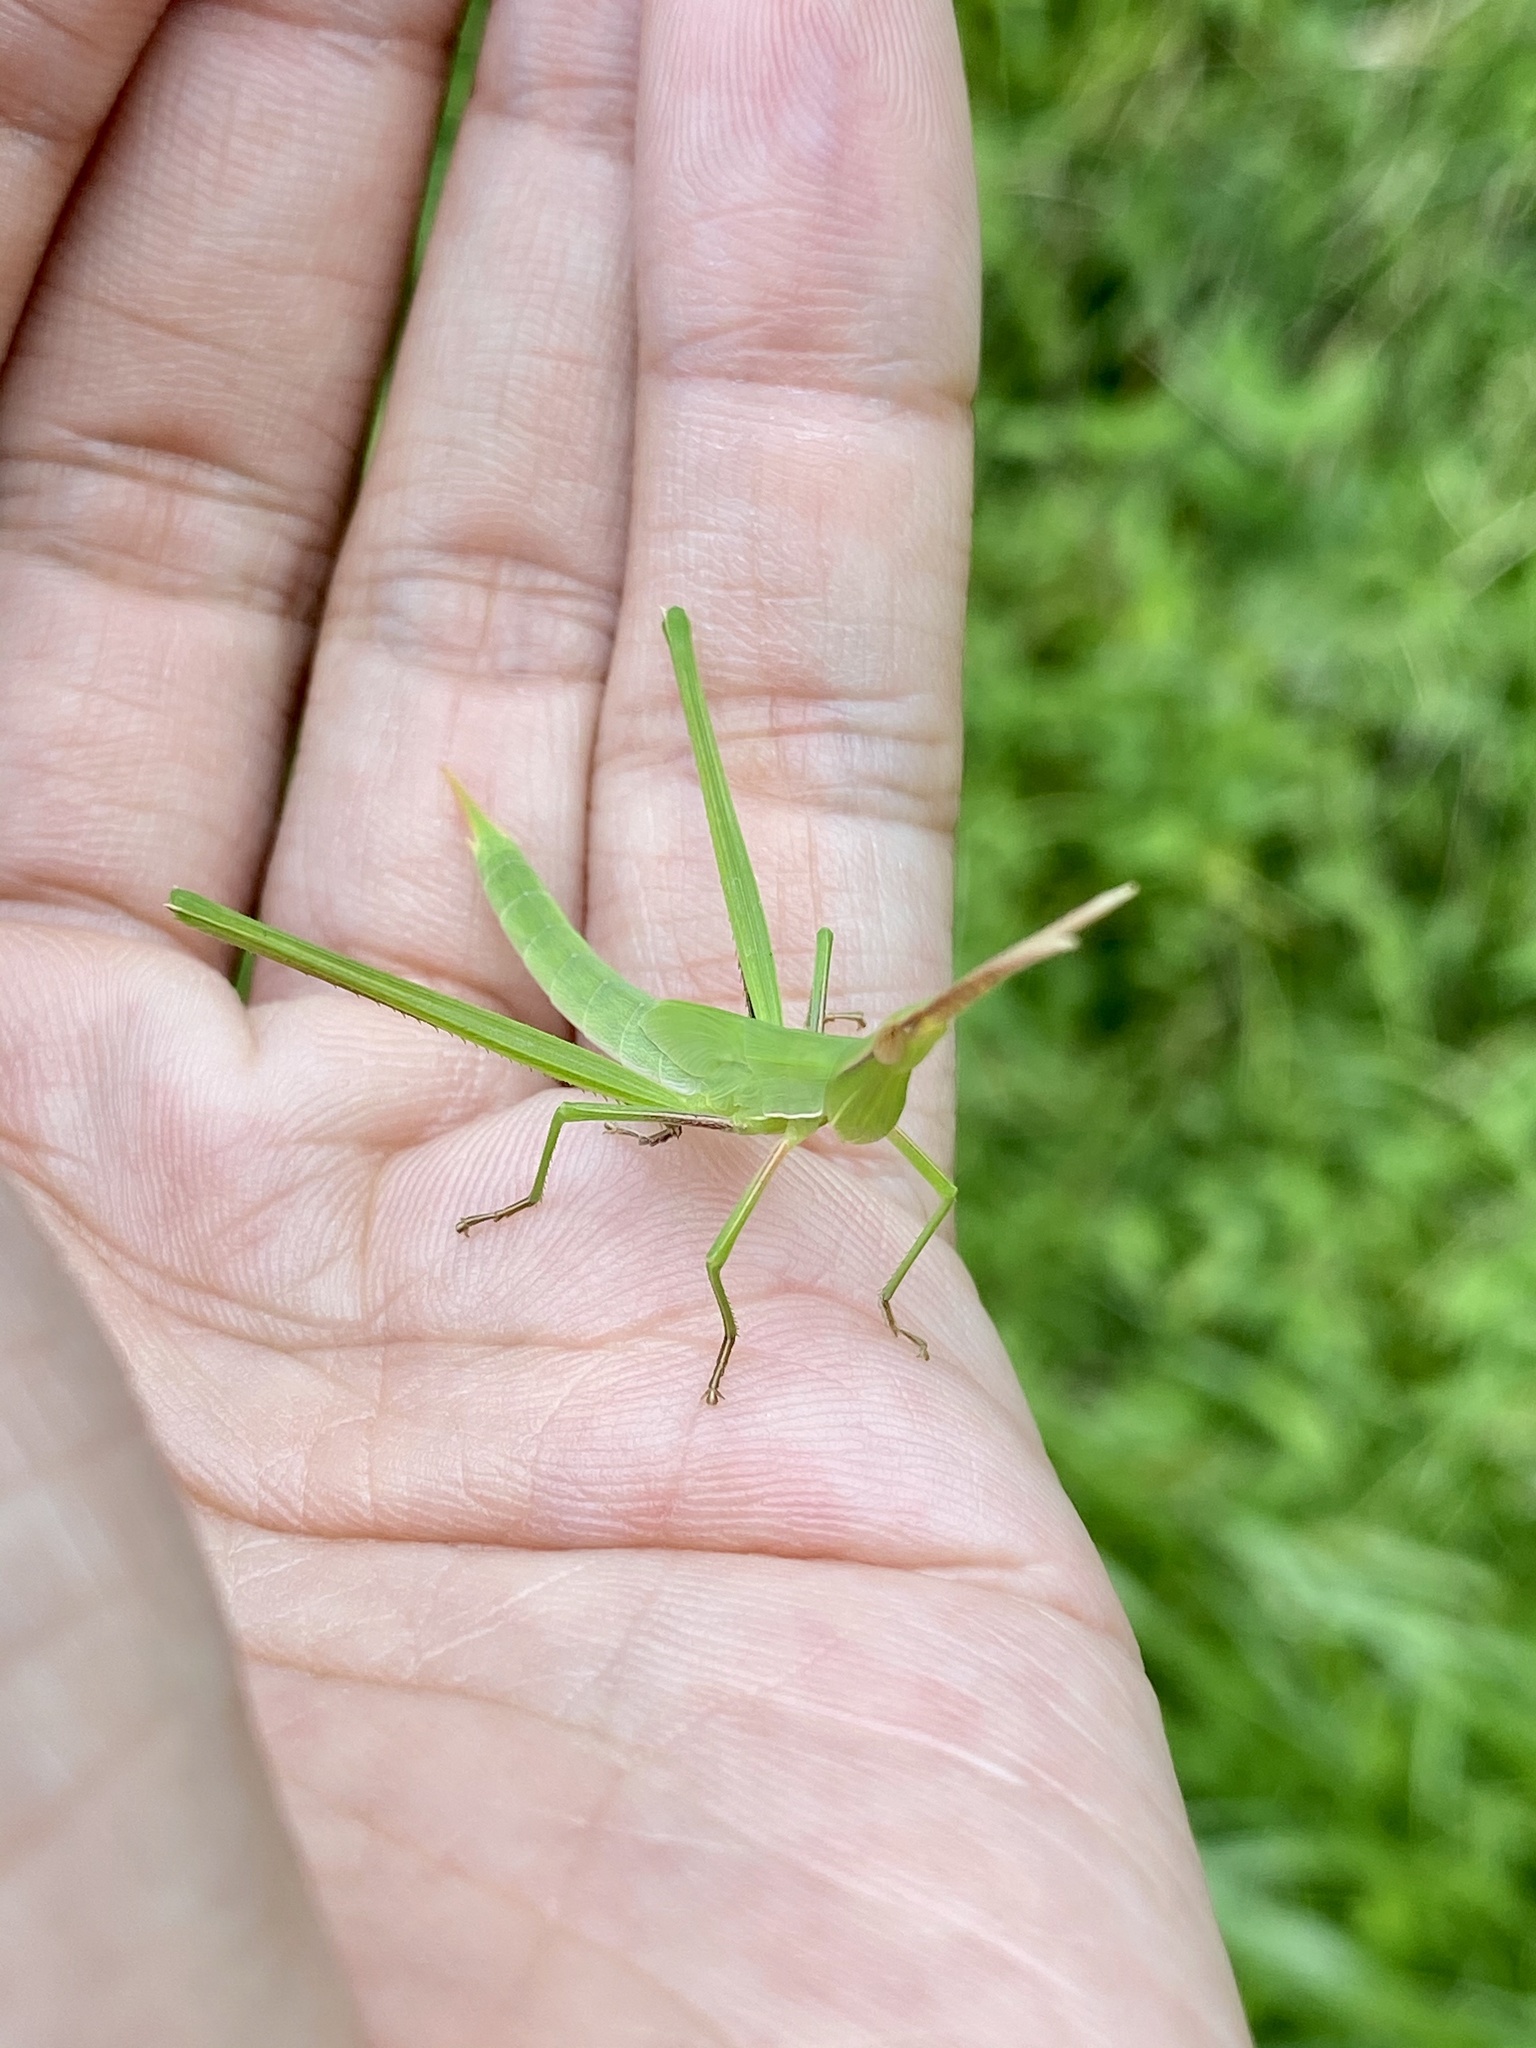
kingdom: Animalia
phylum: Arthropoda
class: Insecta
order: Orthoptera
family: Acrididae
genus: Acrida
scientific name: Acrida cinerea
